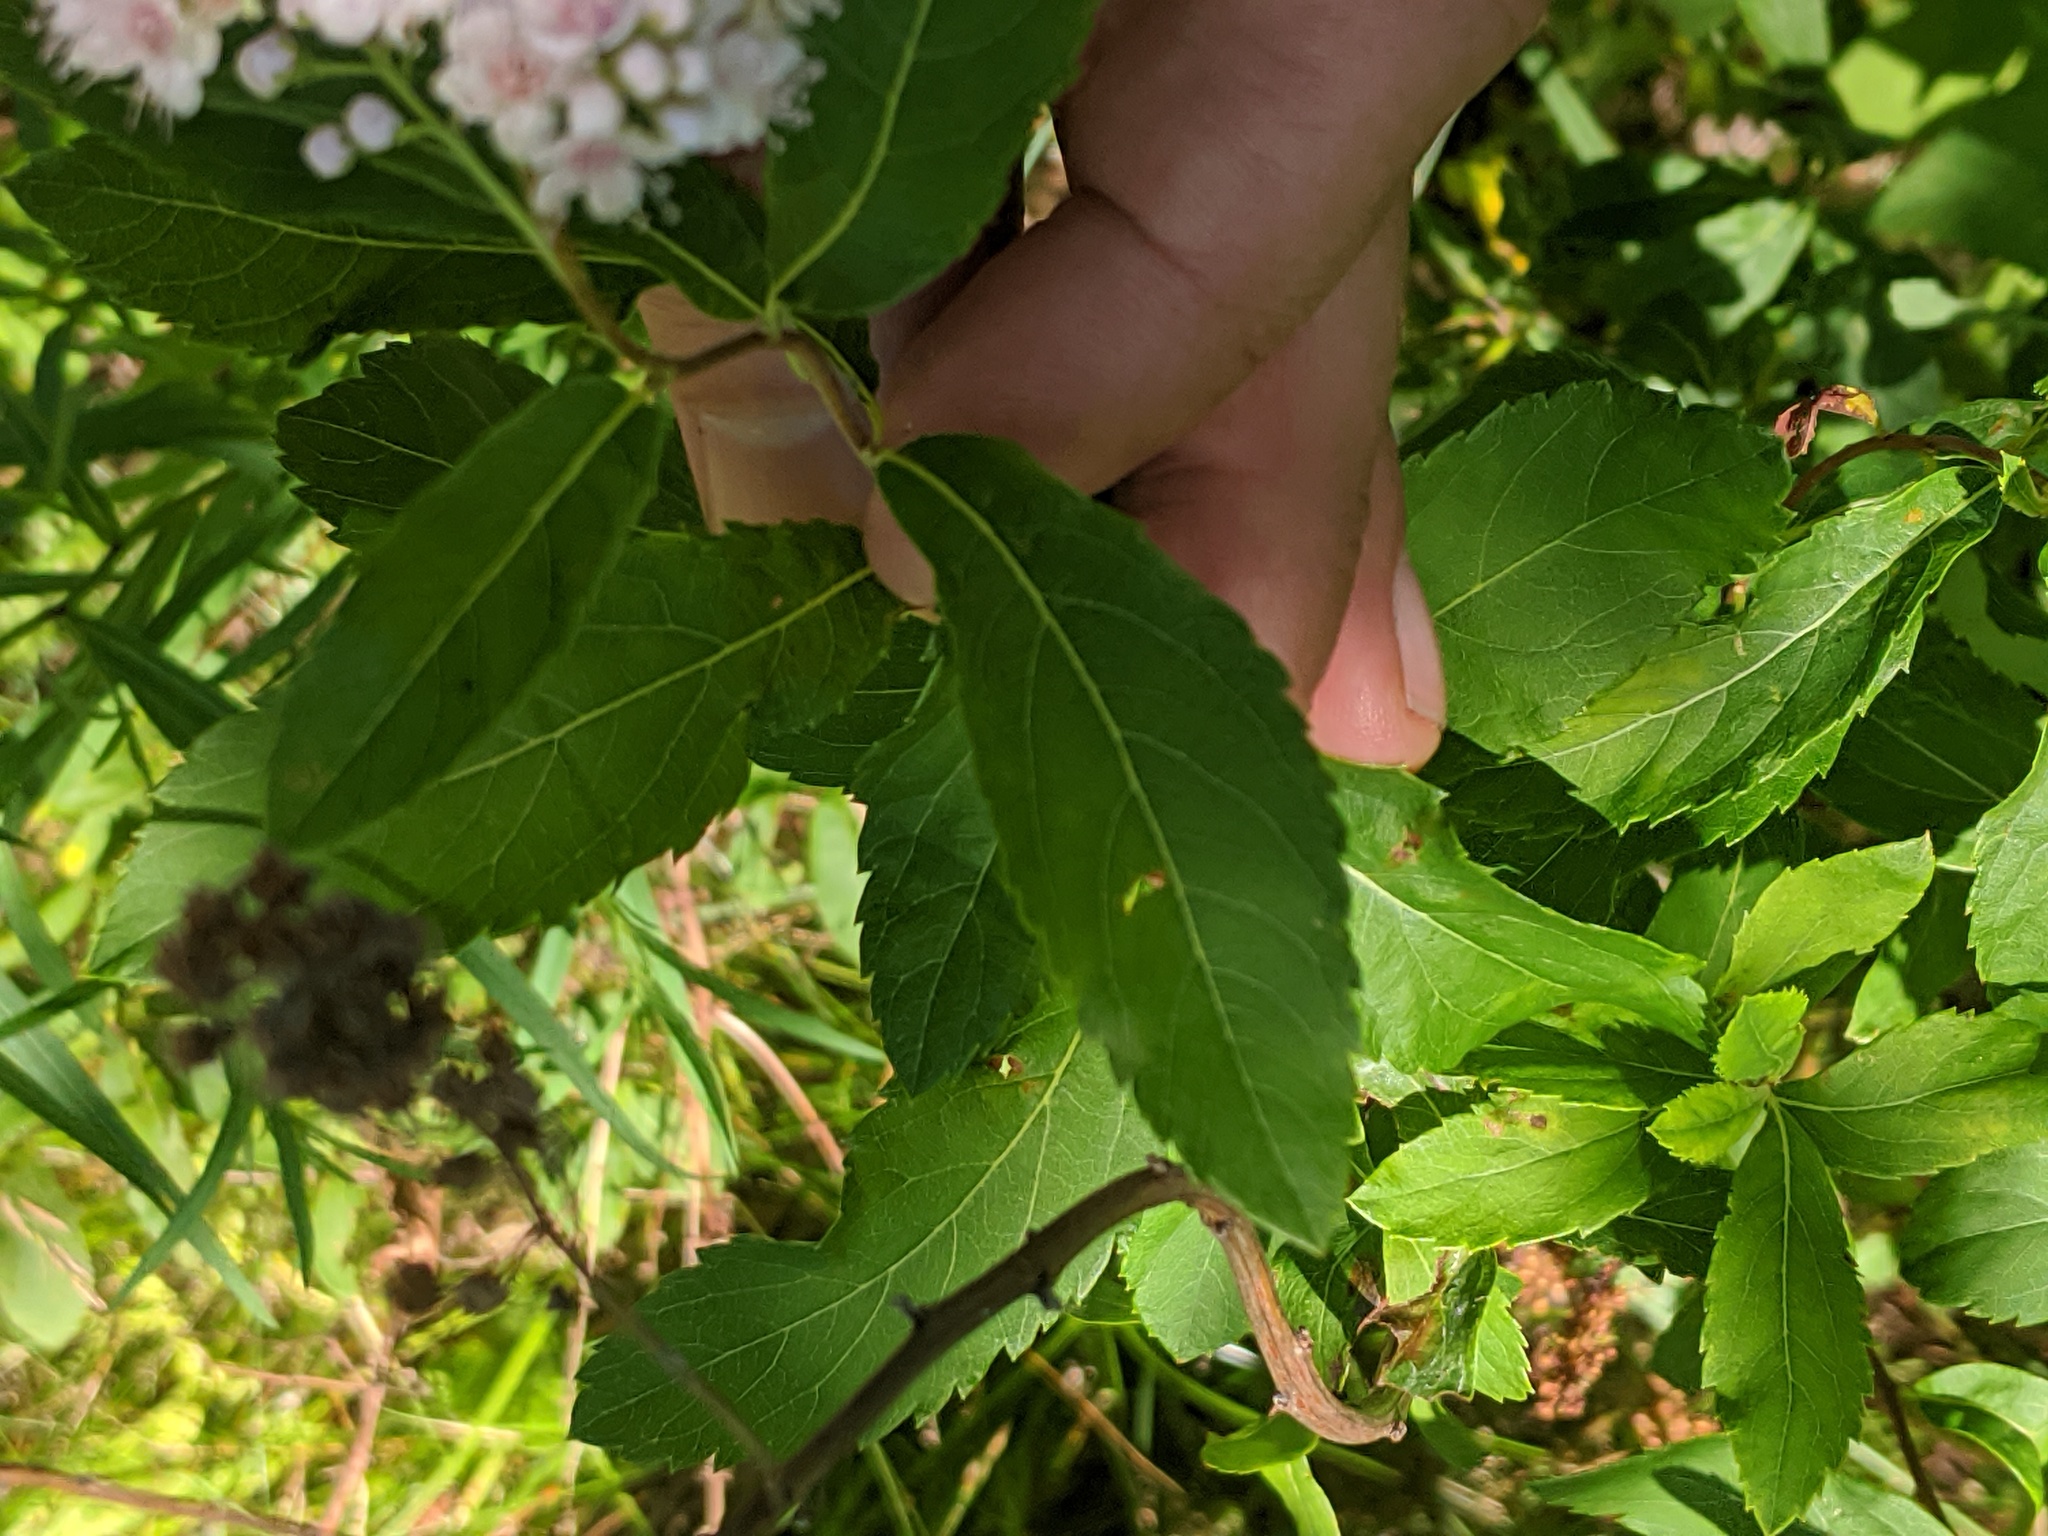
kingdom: Plantae
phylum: Tracheophyta
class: Magnoliopsida
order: Rosales
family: Rosaceae
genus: Spiraea
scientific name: Spiraea alba
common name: Pale bridewort
